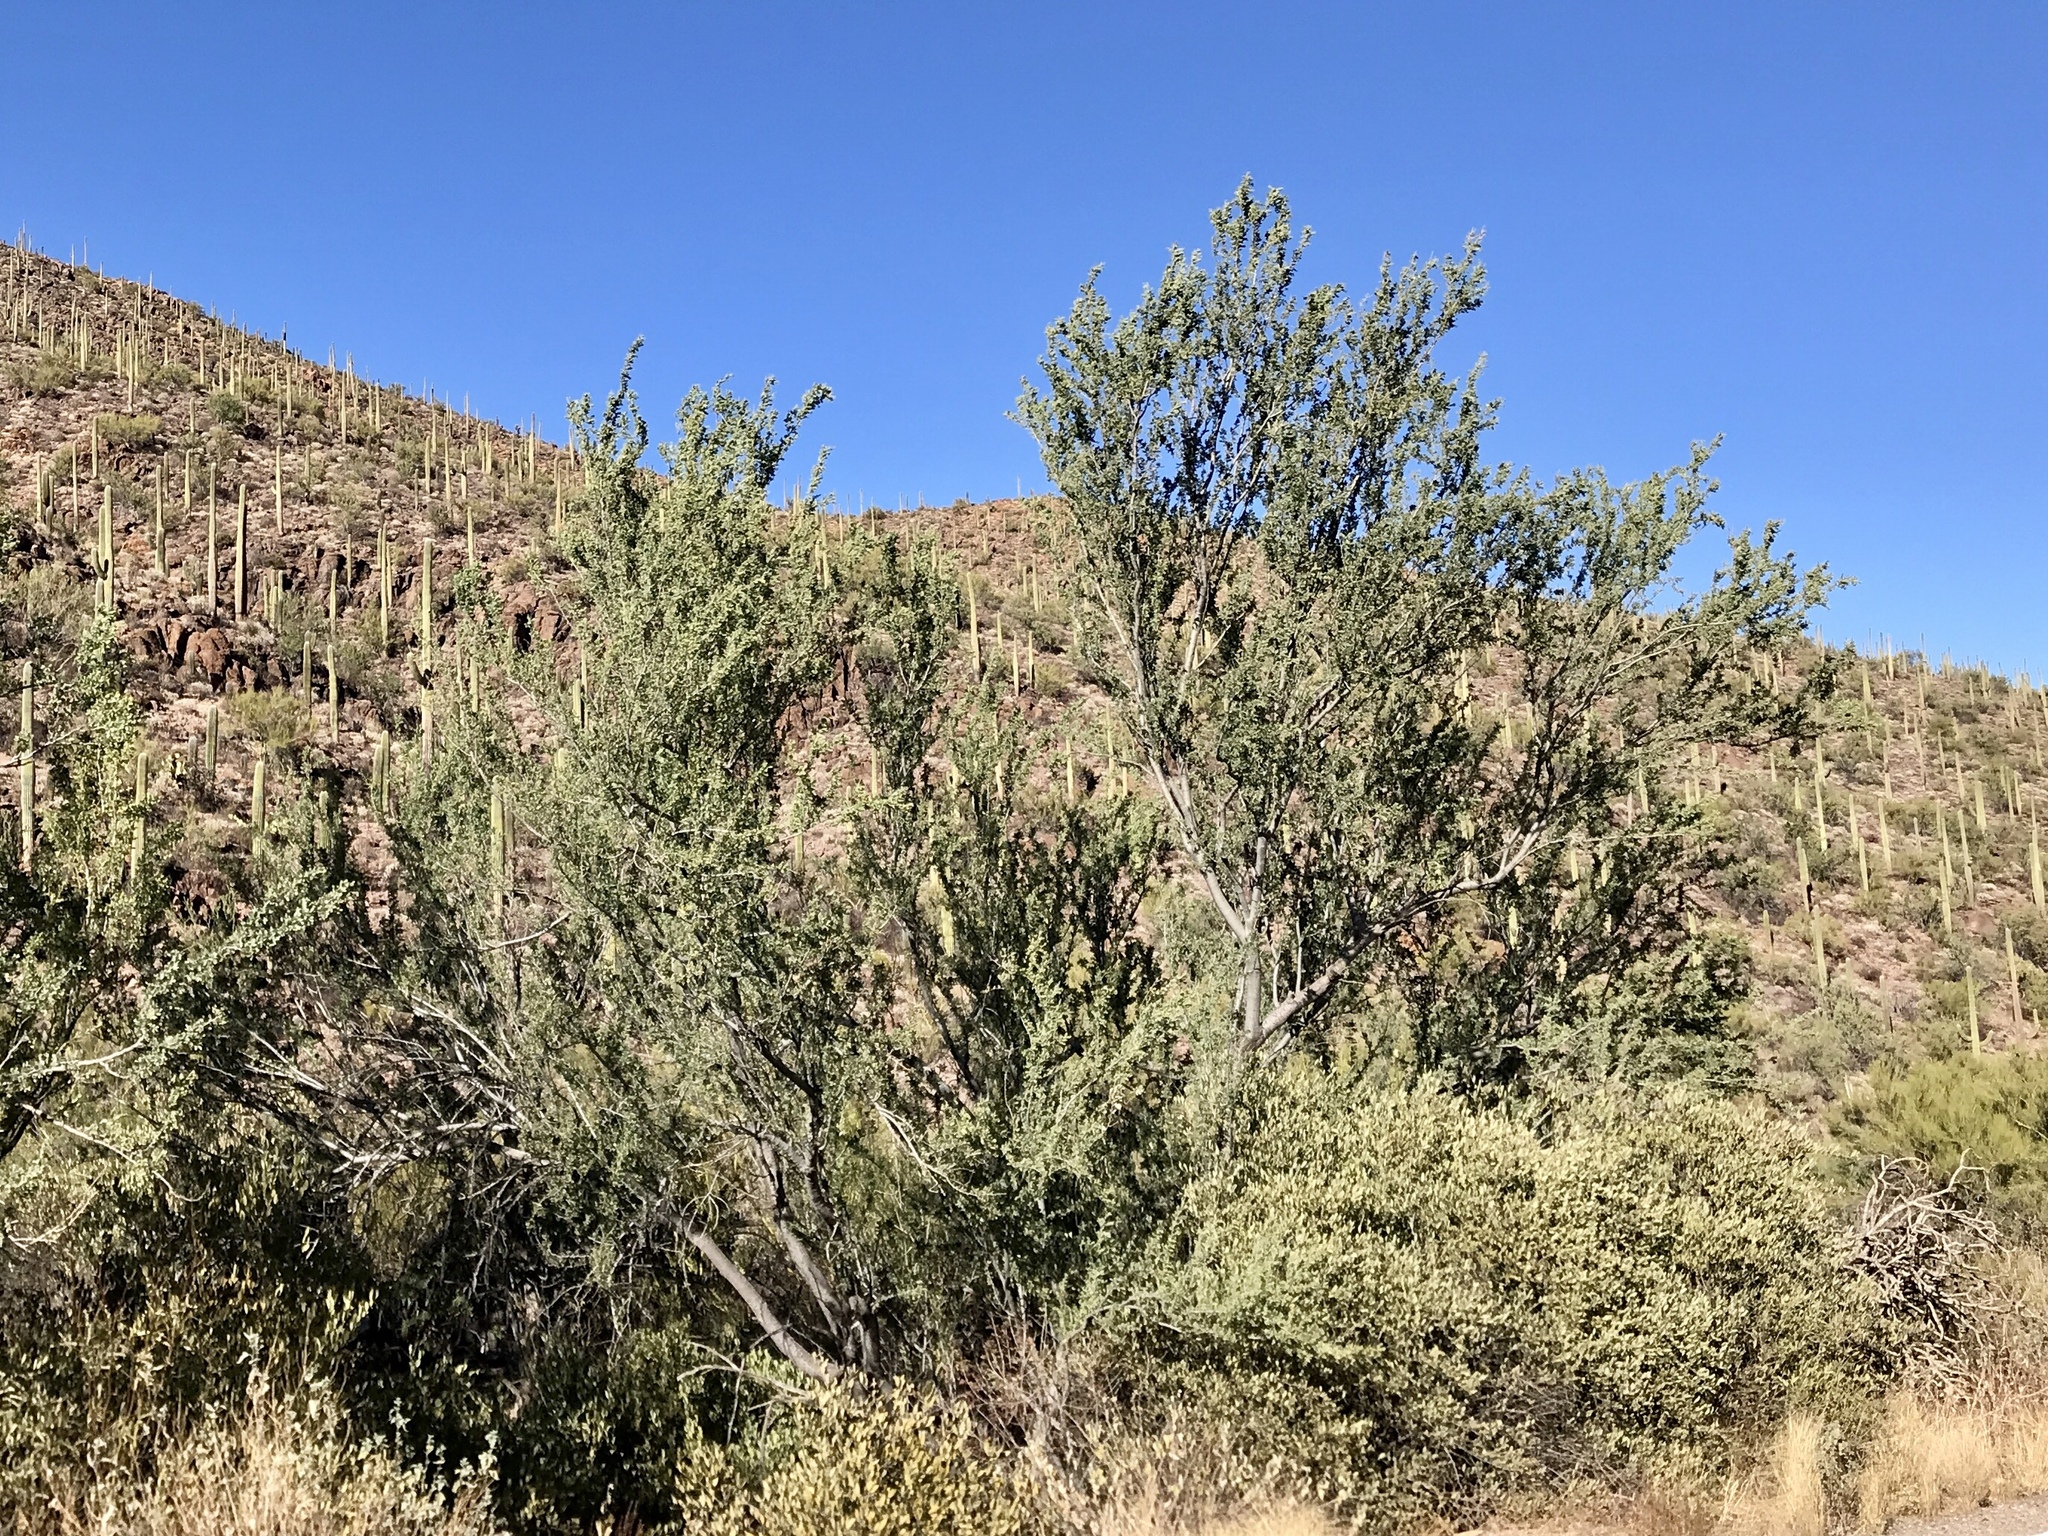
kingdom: Plantae
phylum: Tracheophyta
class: Magnoliopsida
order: Fabales
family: Fabaceae
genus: Olneya
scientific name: Olneya tesota
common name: Desert ironwood
